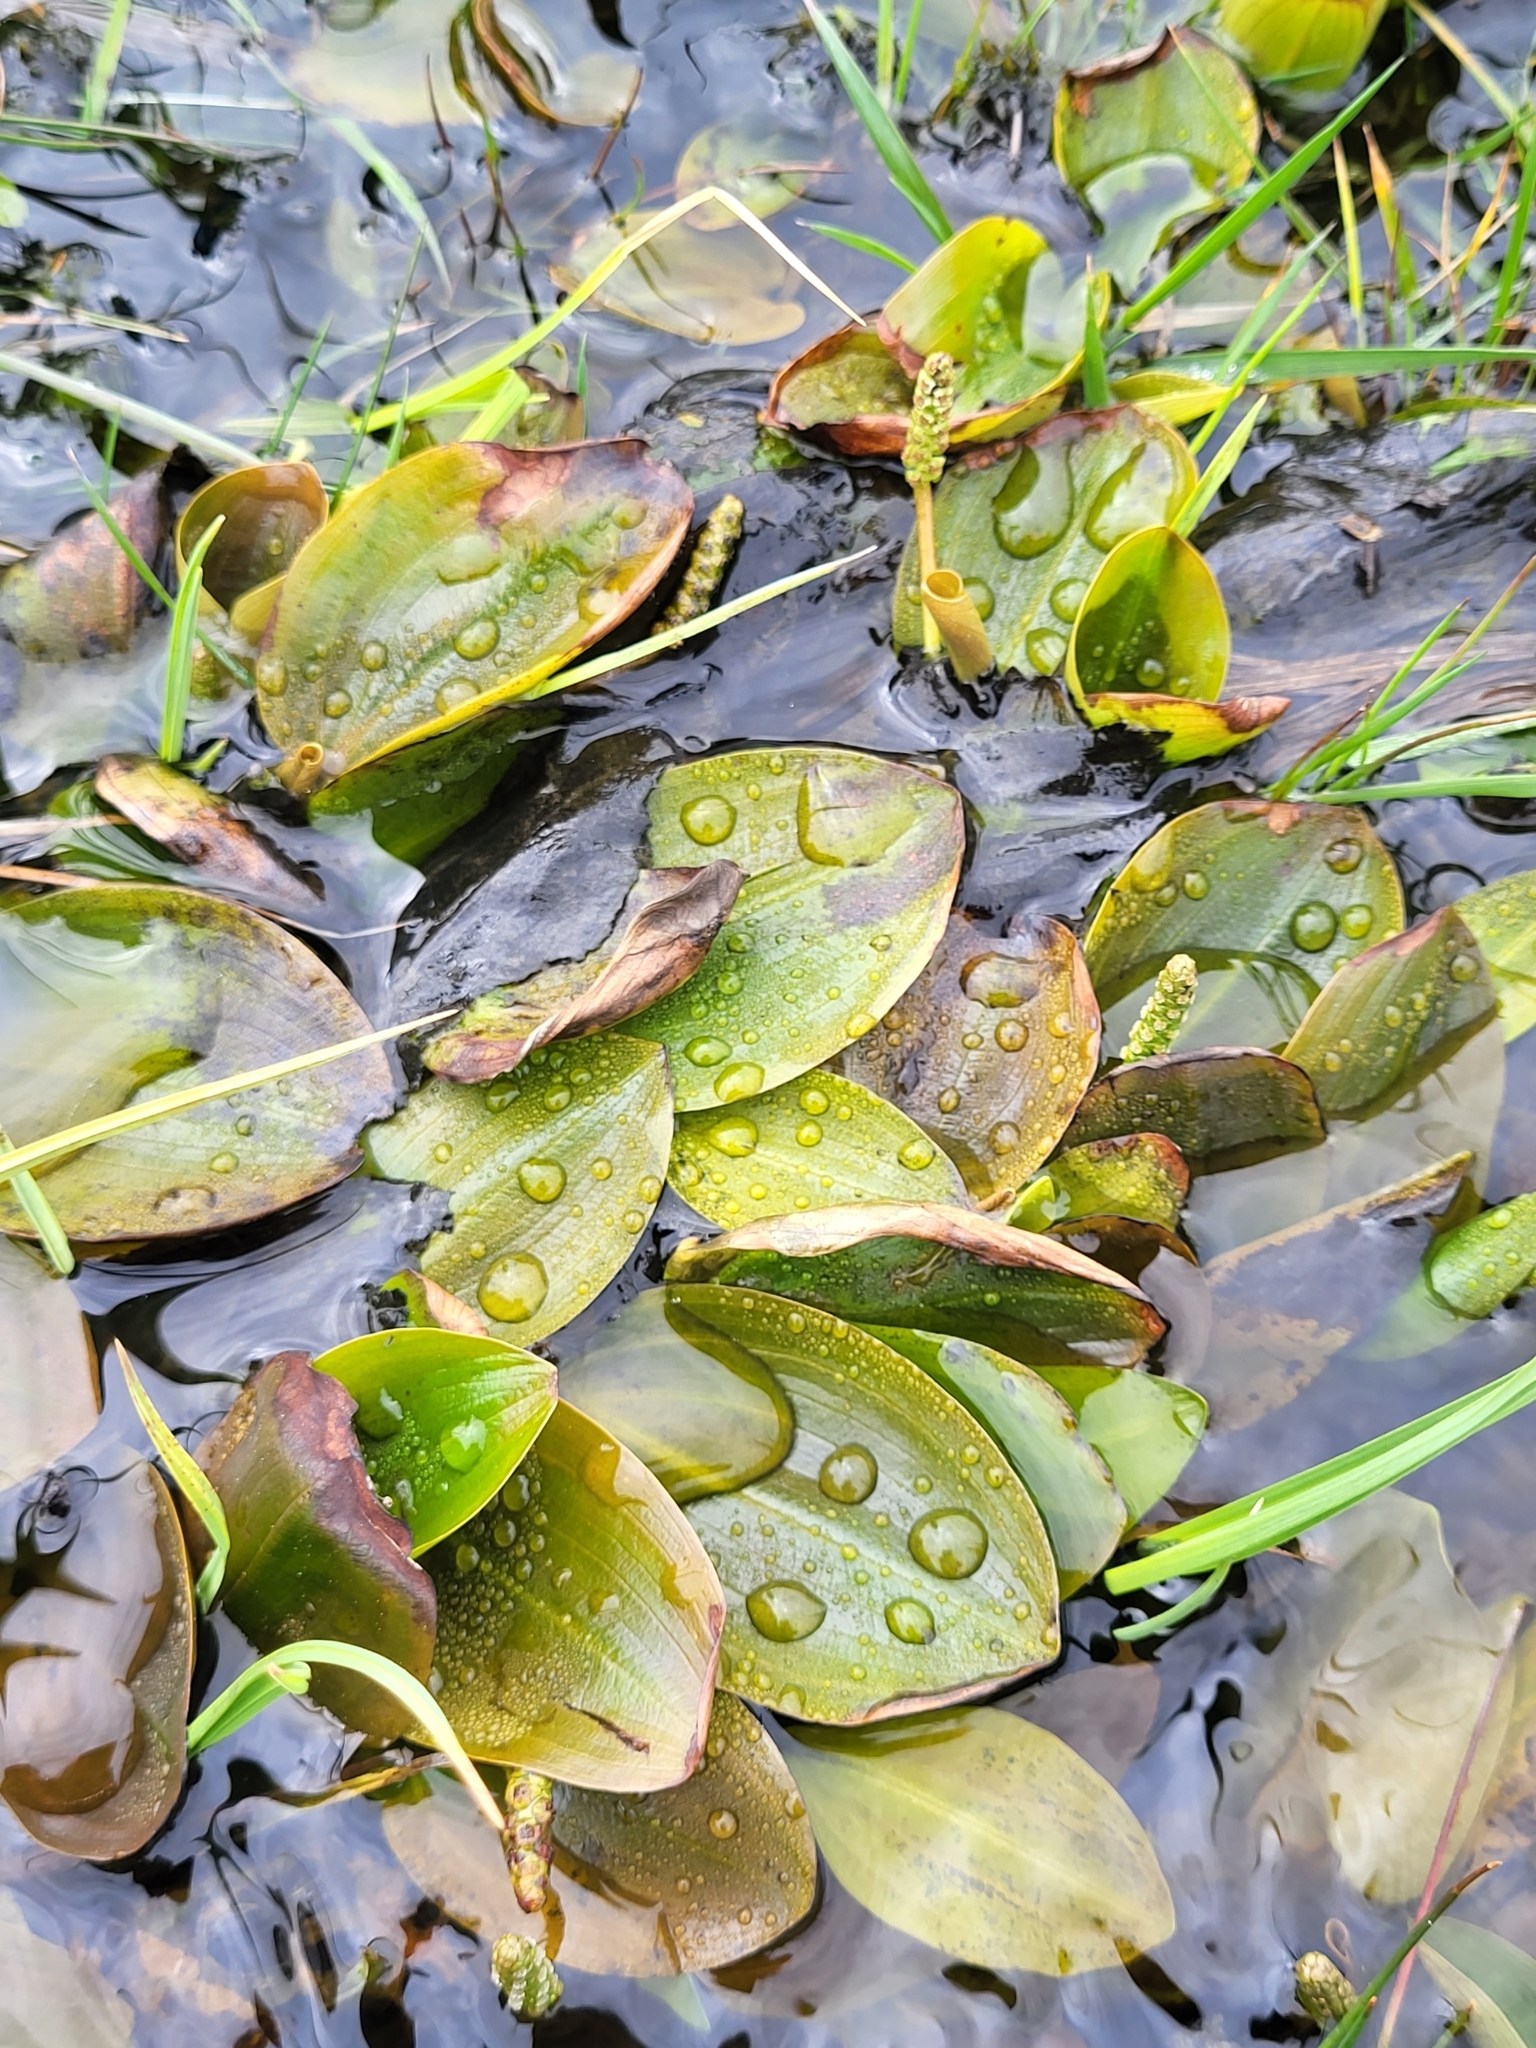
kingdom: Plantae
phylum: Tracheophyta
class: Liliopsida
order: Alismatales
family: Potamogetonaceae
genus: Potamogeton
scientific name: Potamogeton polygonifolius
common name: Bog pondweed
